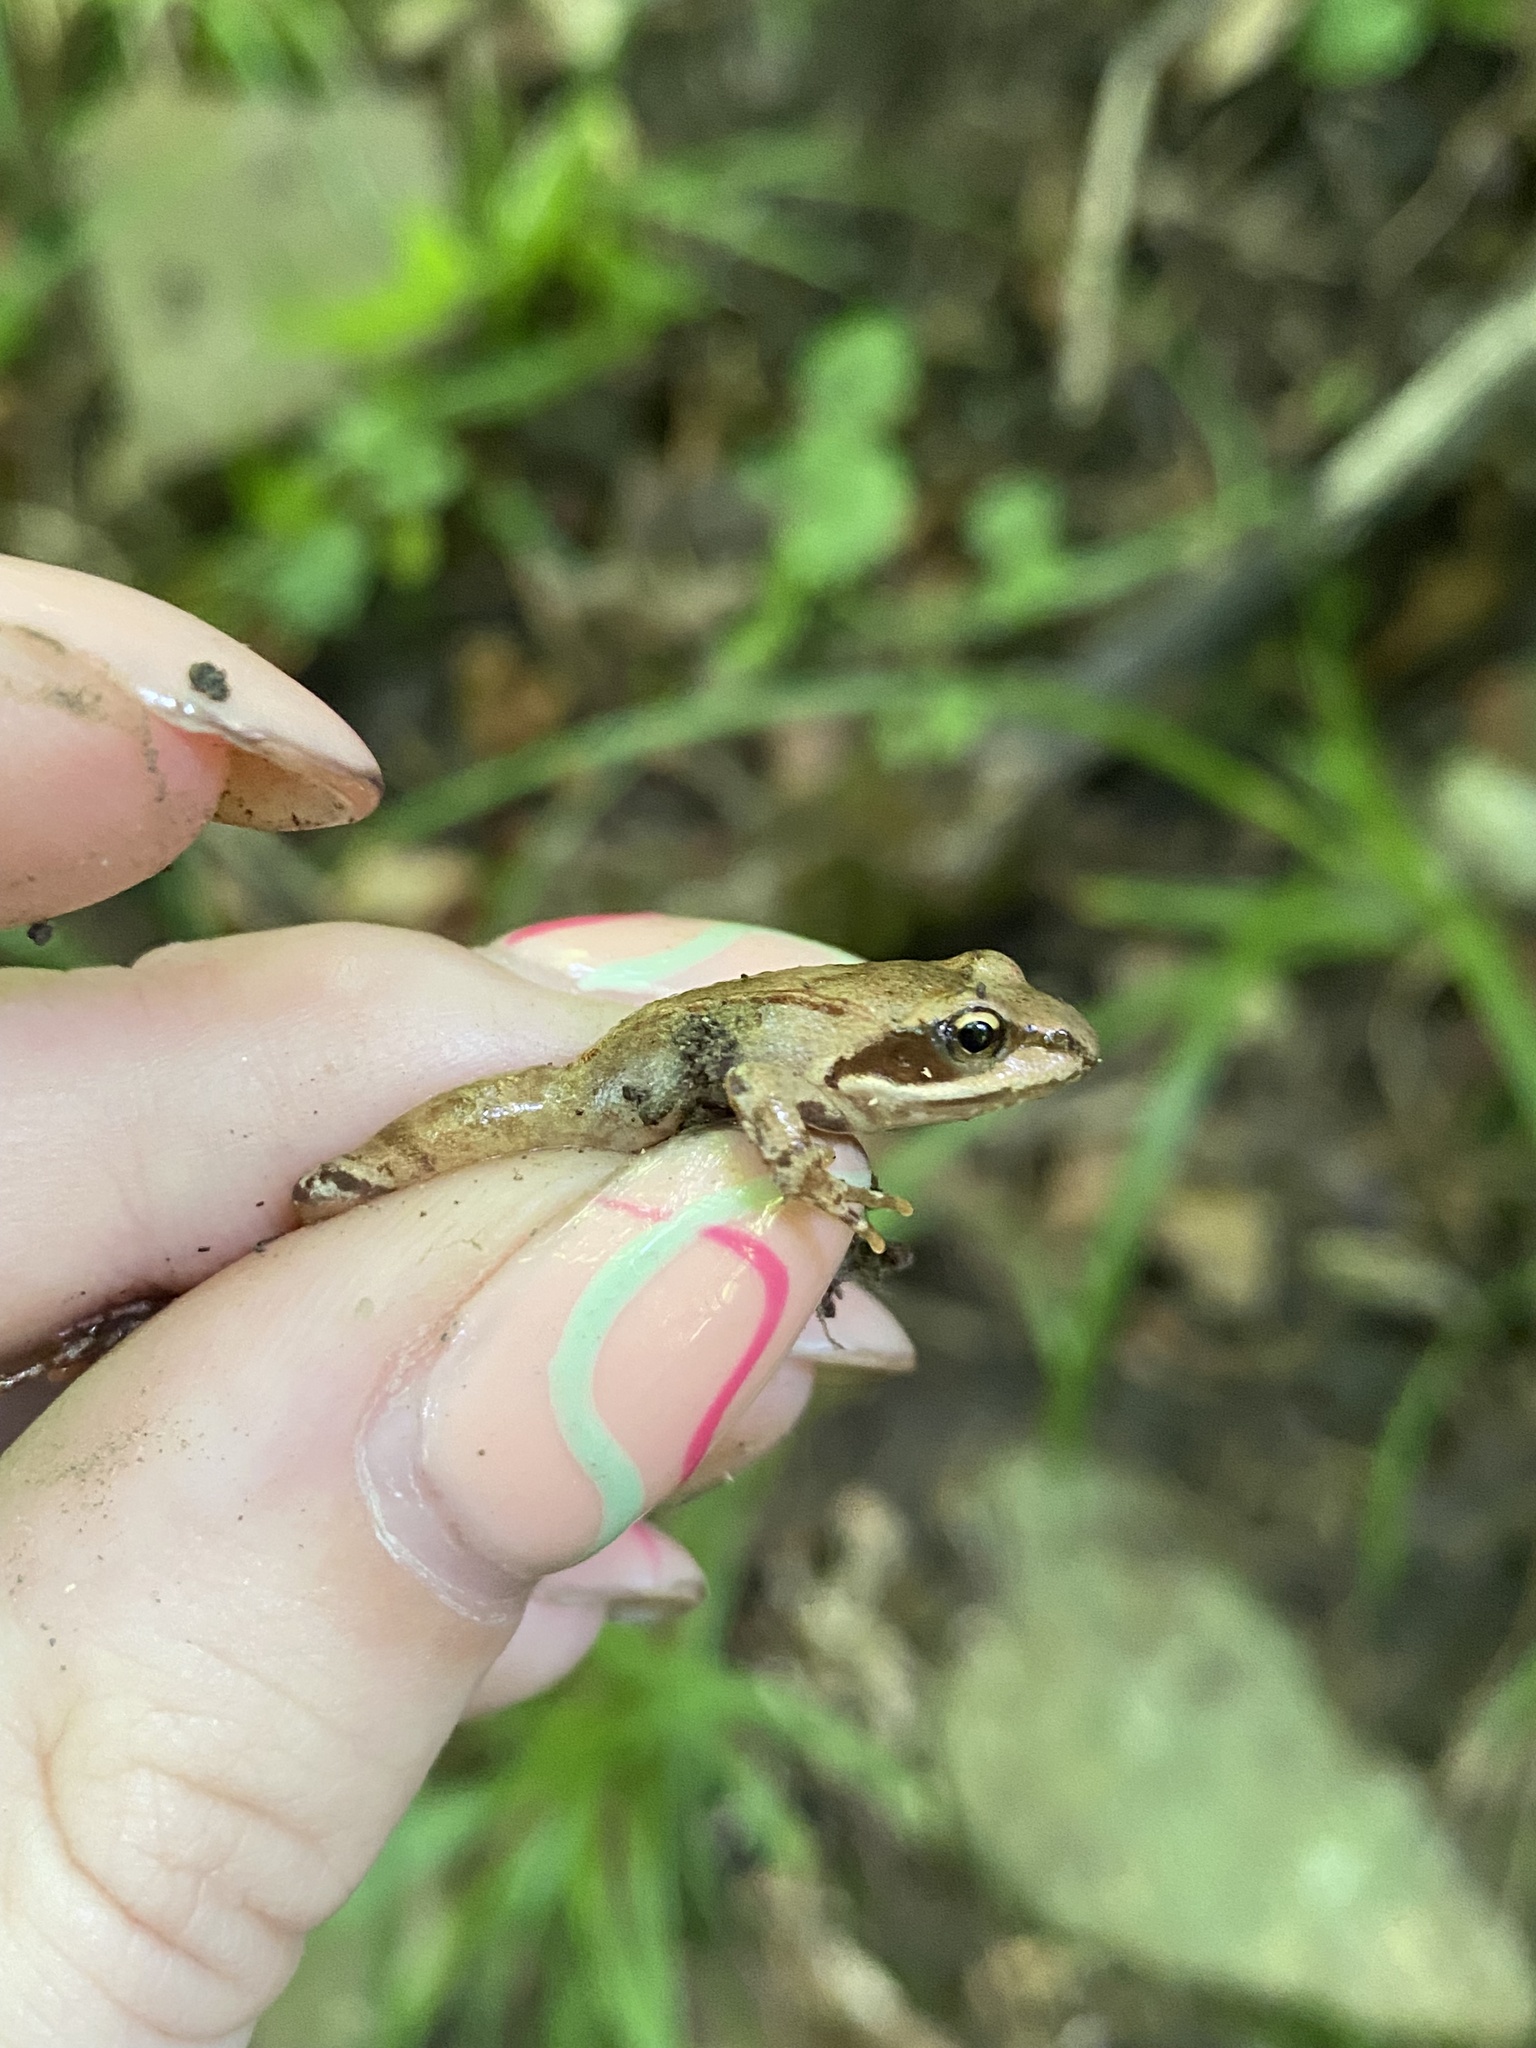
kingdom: Animalia
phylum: Chordata
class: Amphibia
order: Anura
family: Ranidae
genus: Rana
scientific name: Rana macrocnemis
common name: Banded frog
